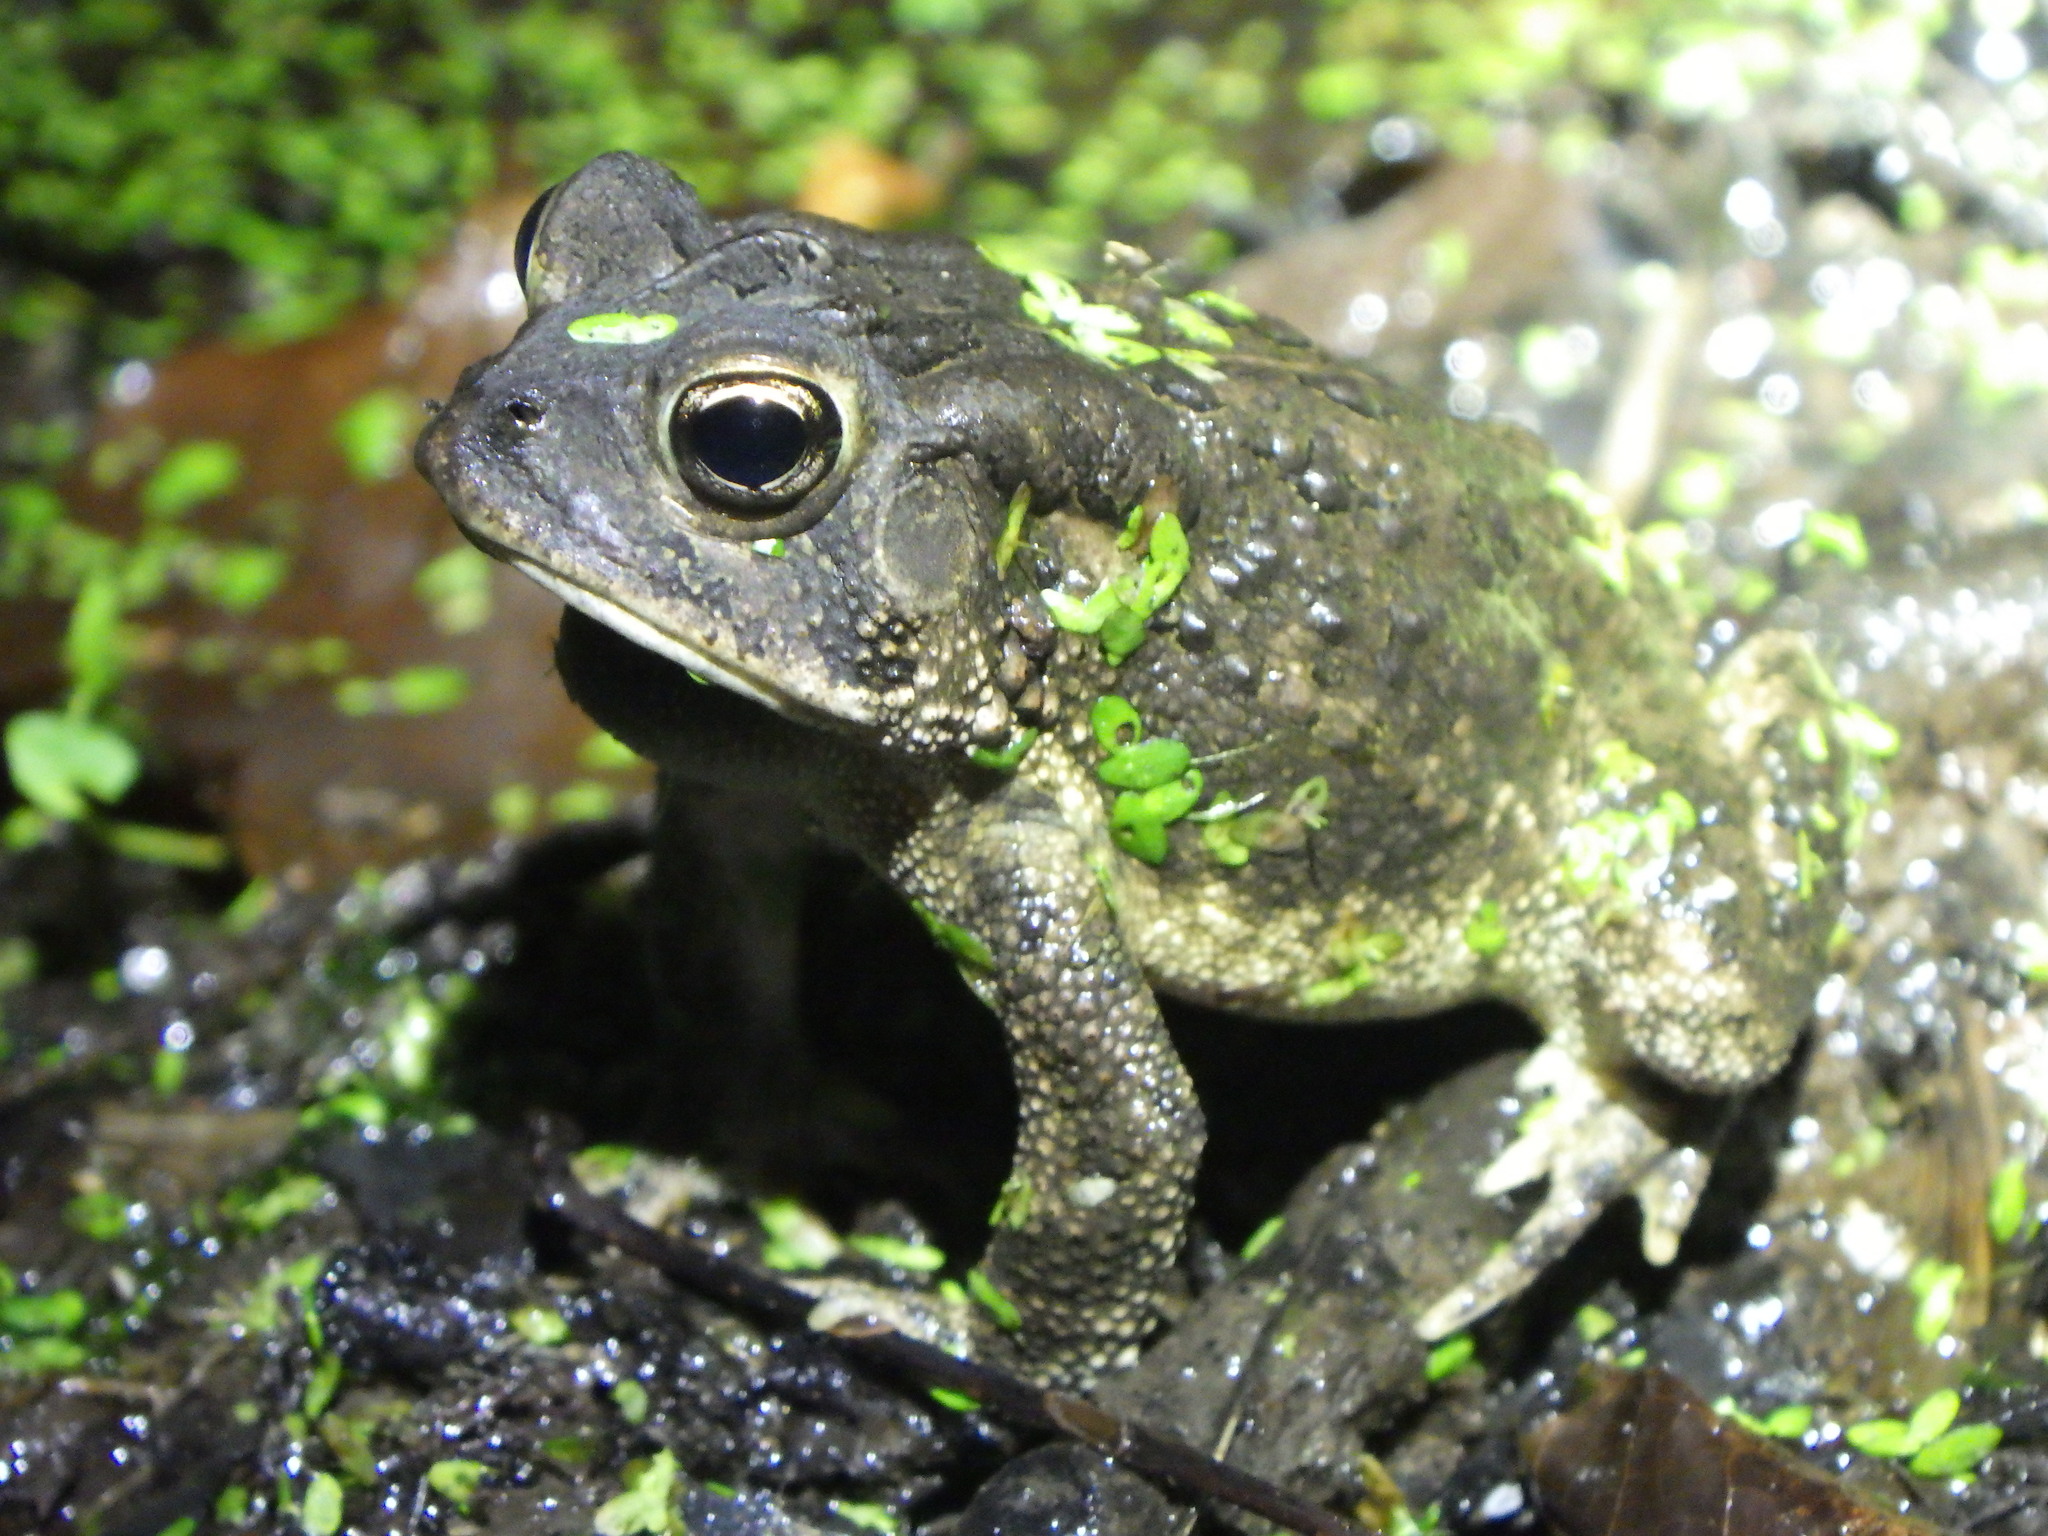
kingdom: Animalia
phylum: Chordata
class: Amphibia
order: Anura
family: Bufonidae
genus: Anaxyrus
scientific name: Anaxyrus terrestris
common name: Southern toad
